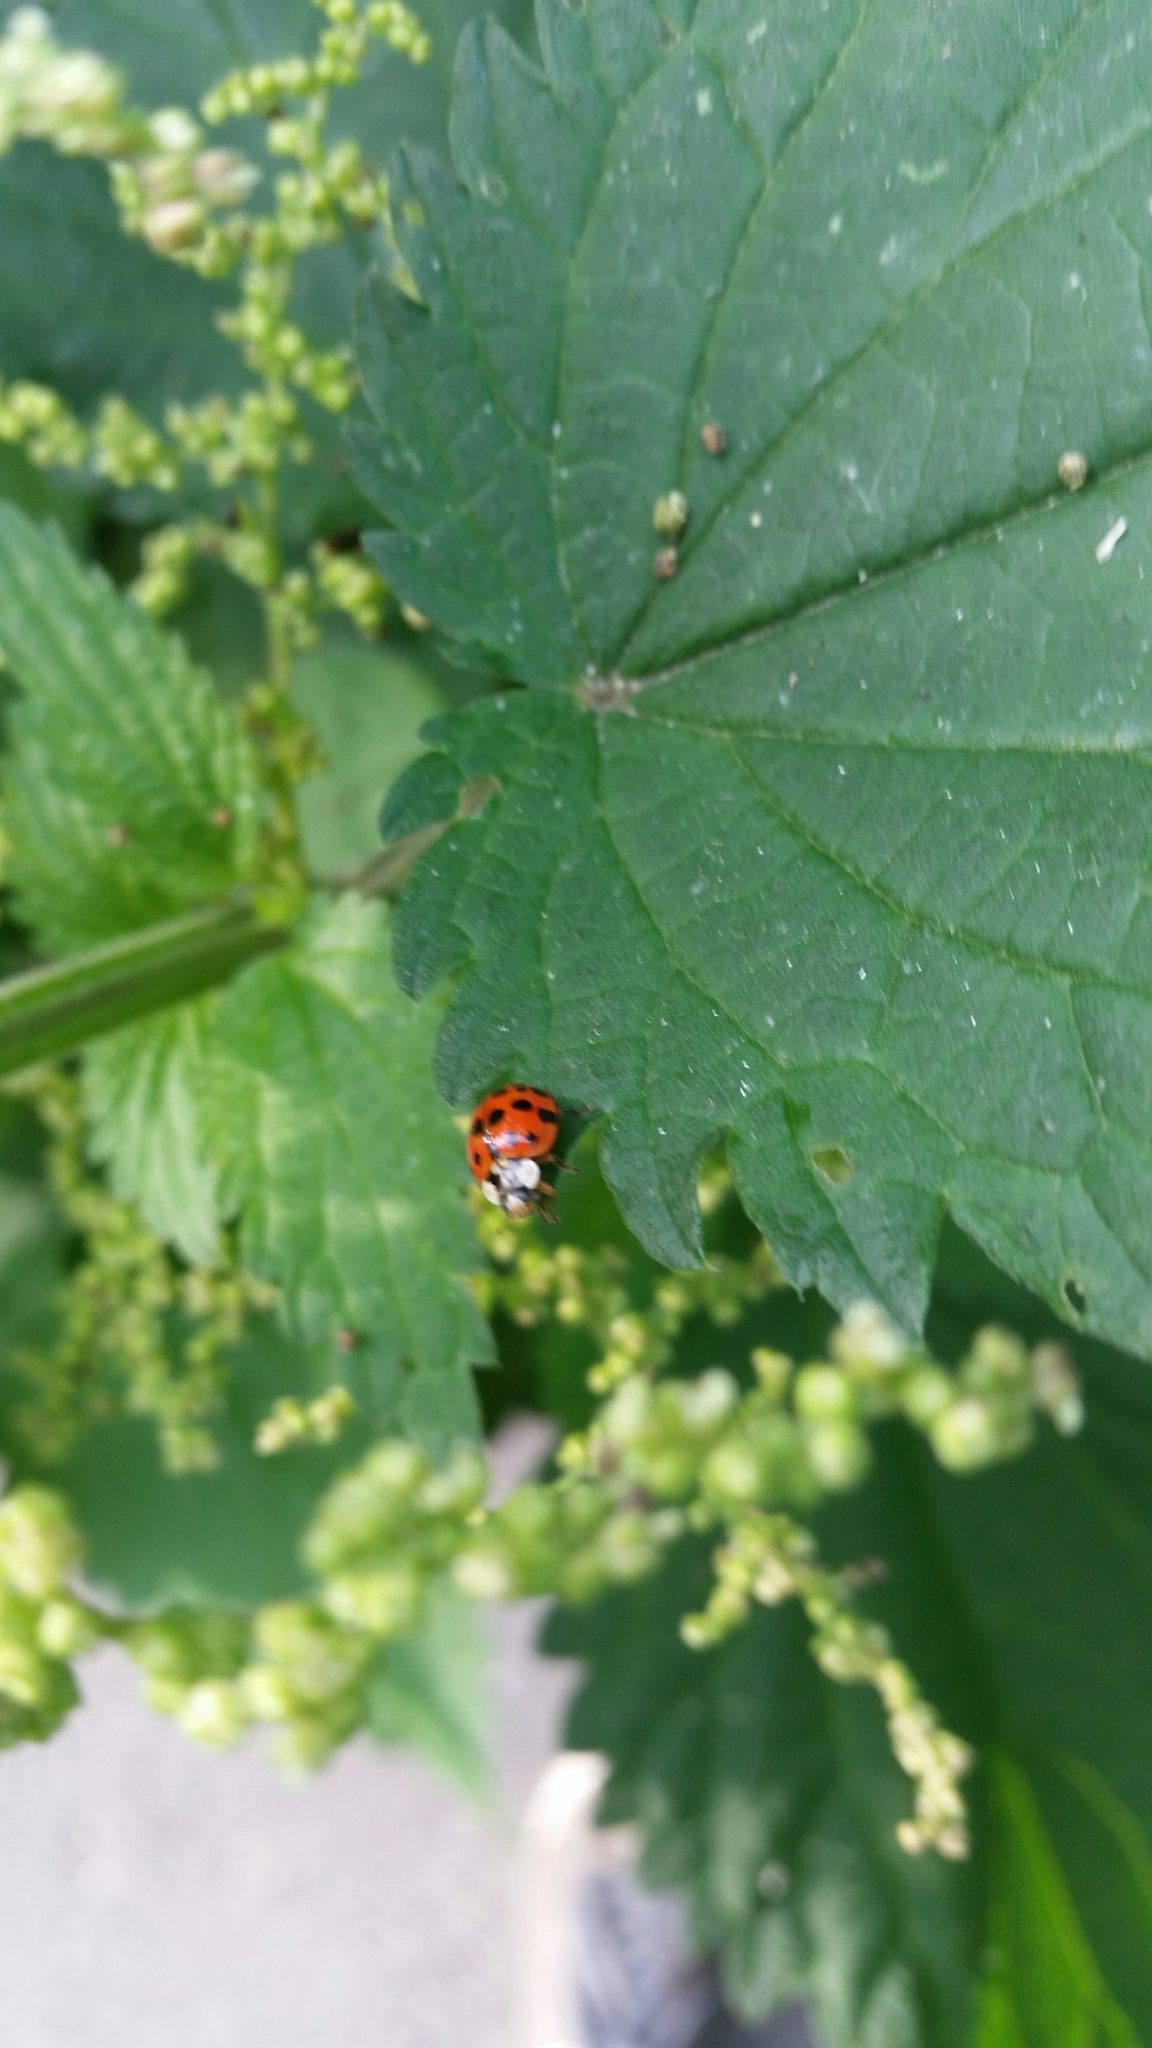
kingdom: Animalia
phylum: Arthropoda
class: Insecta
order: Coleoptera
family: Coccinellidae
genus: Harmonia
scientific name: Harmonia axyridis
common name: Harlequin ladybird
